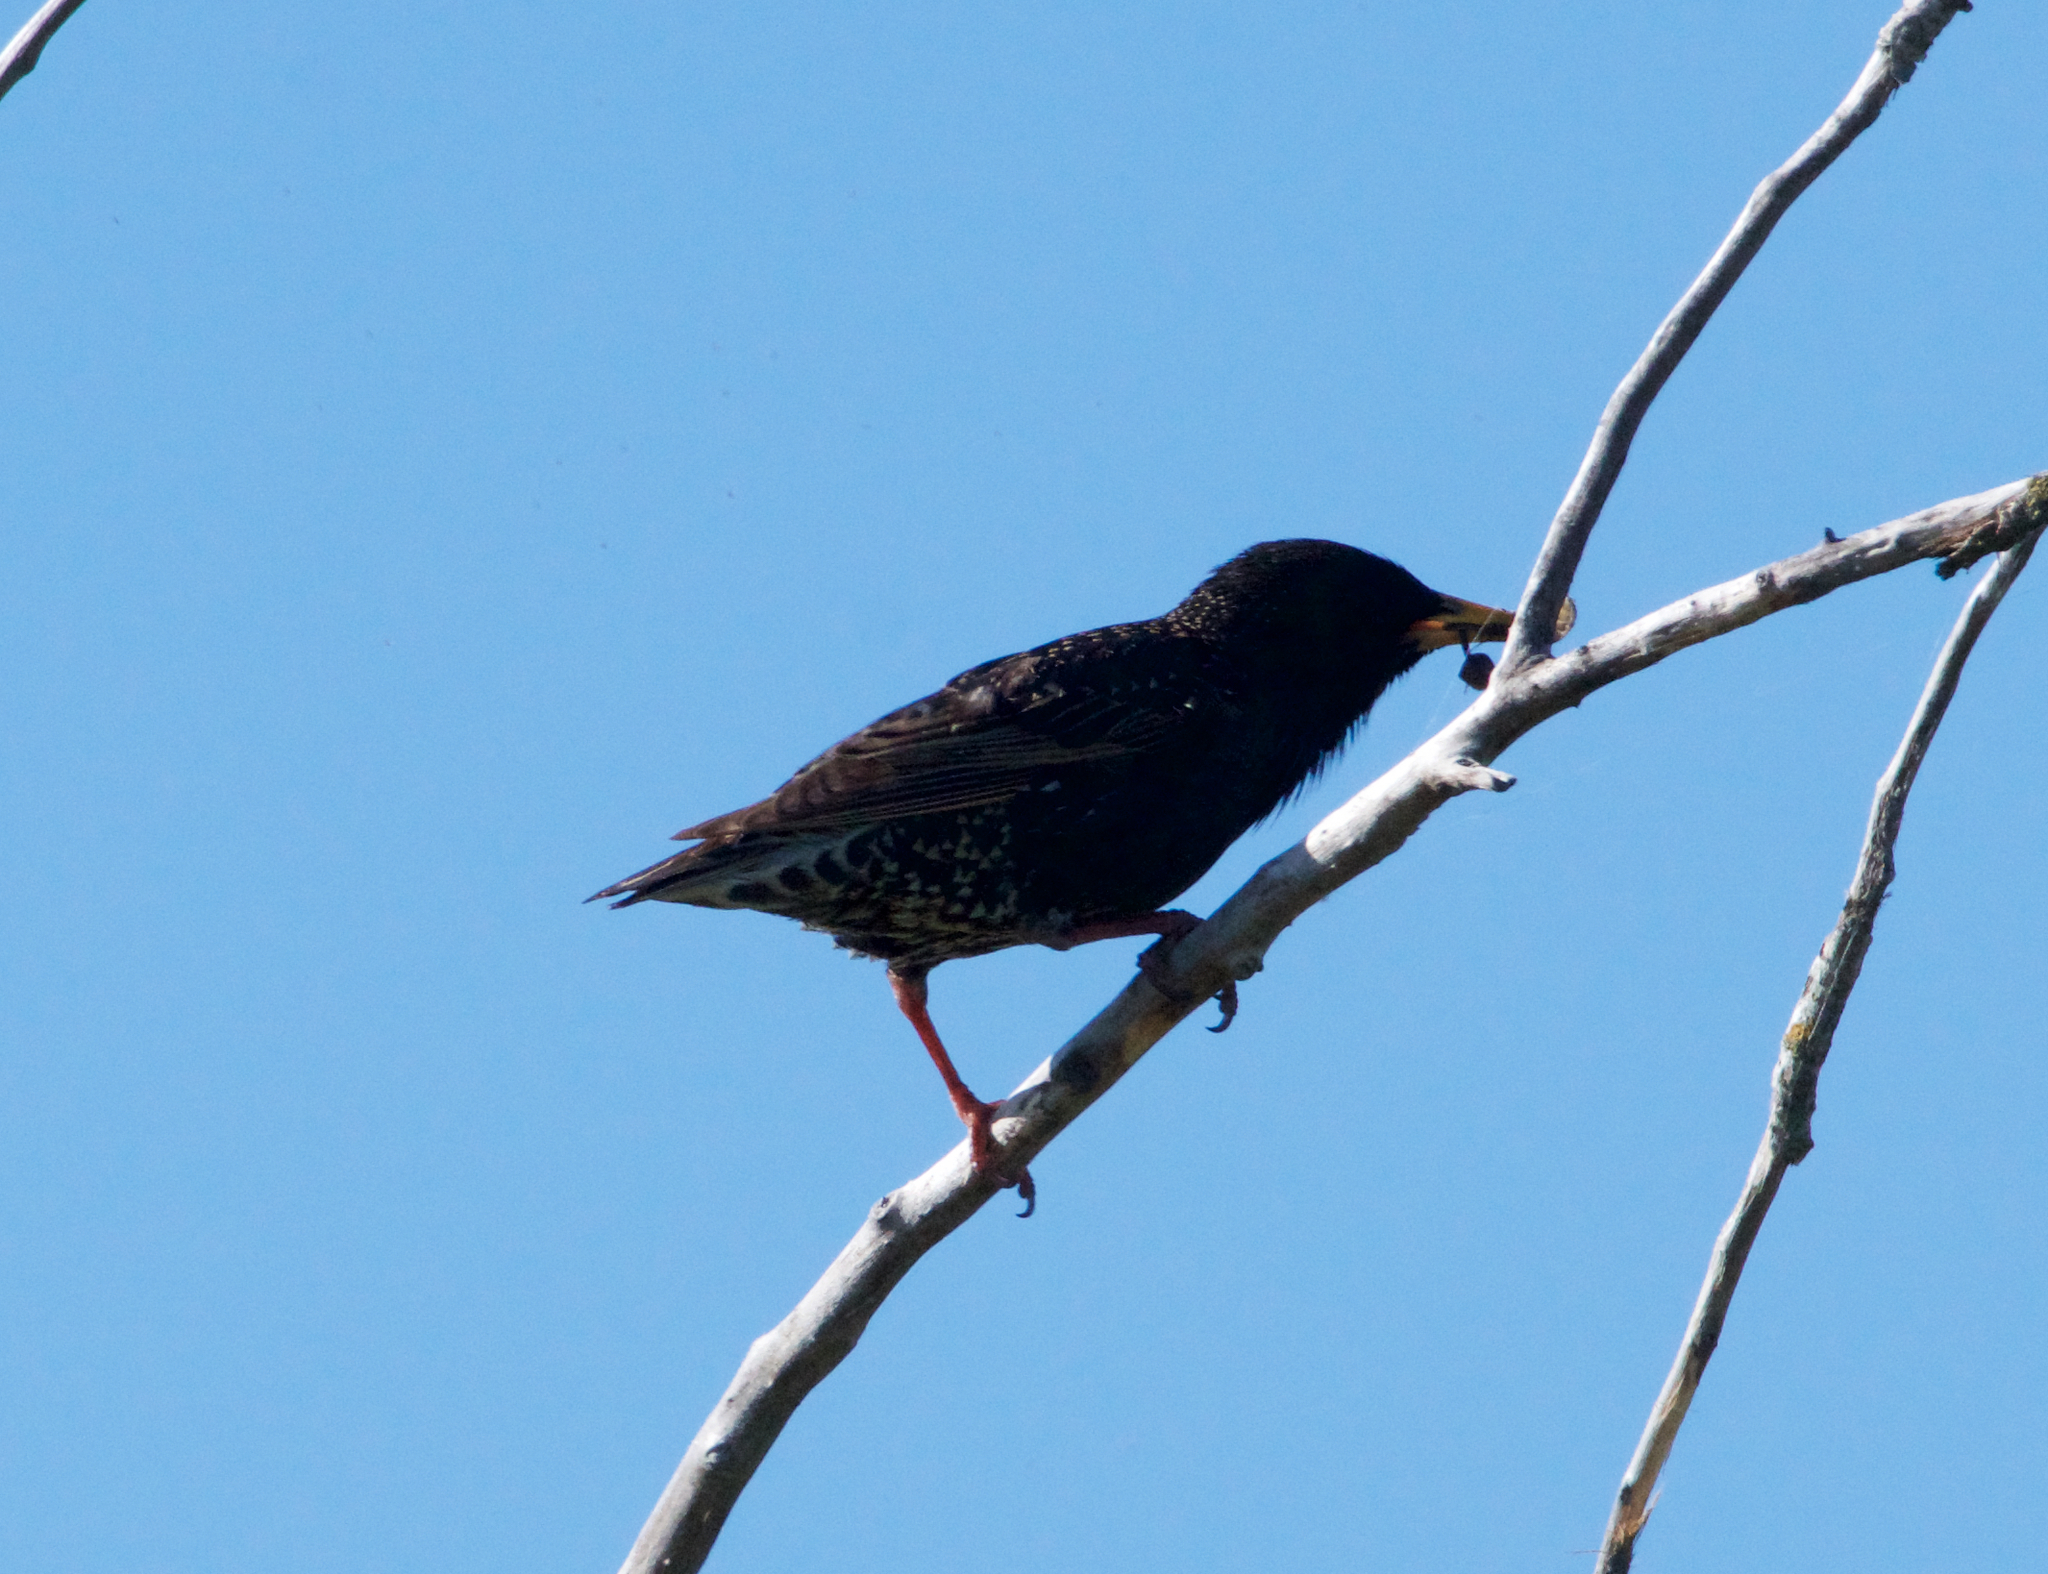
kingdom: Animalia
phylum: Chordata
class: Aves
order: Passeriformes
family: Sturnidae
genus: Sturnus
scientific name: Sturnus vulgaris
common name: Common starling
